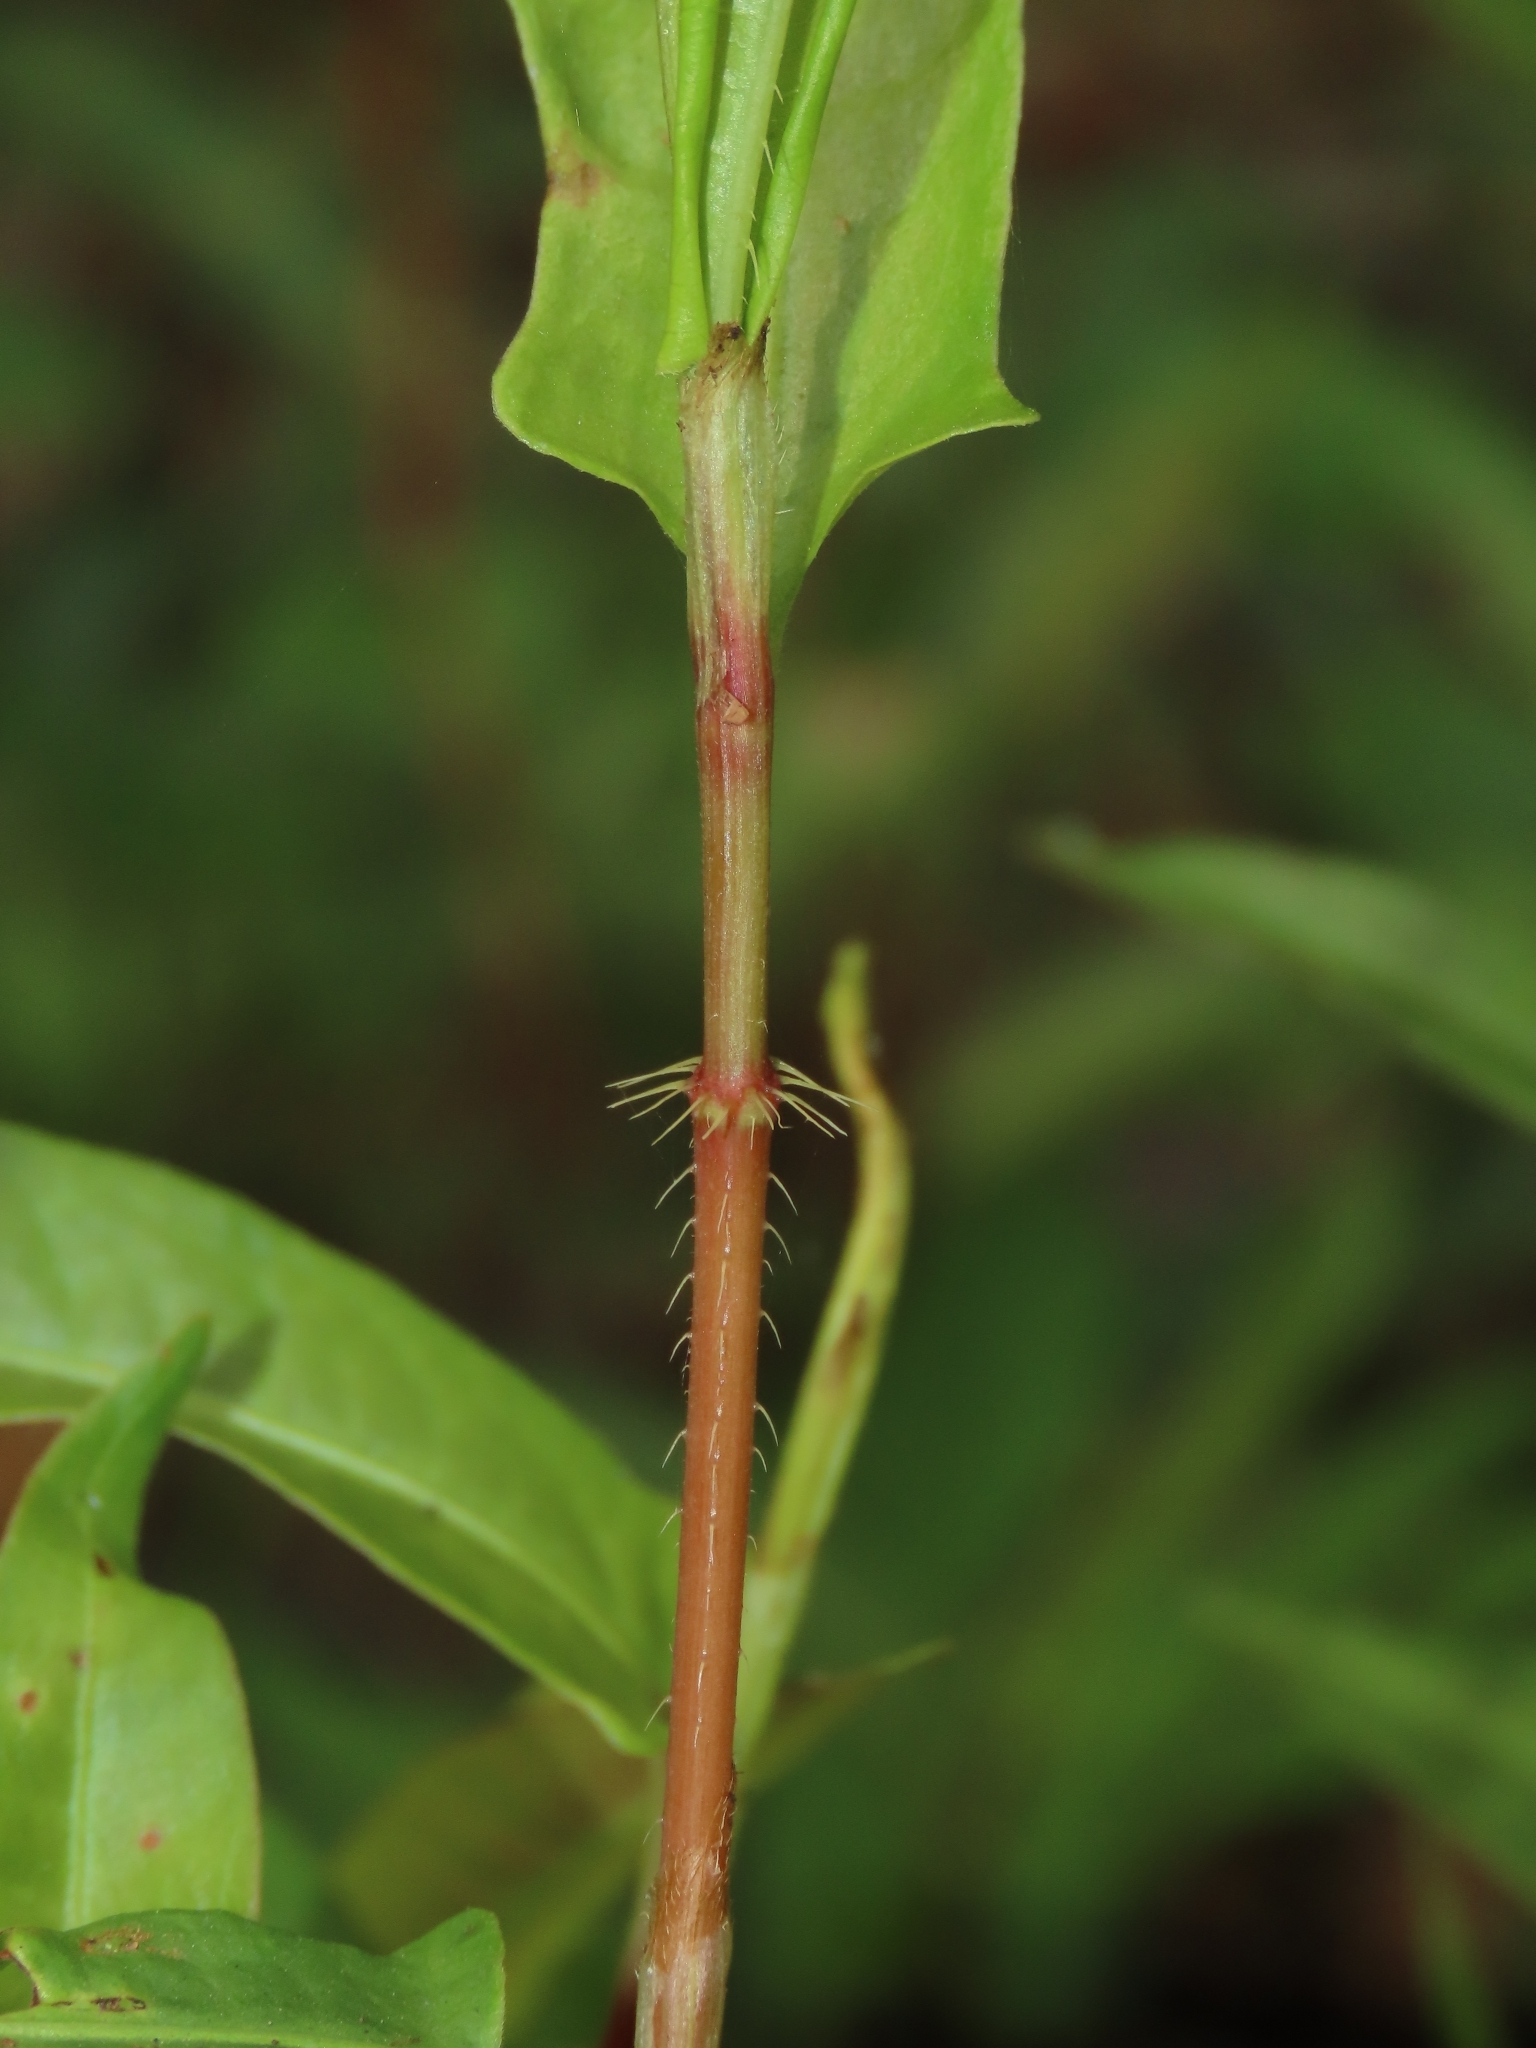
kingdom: Plantae
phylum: Tracheophyta
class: Magnoliopsida
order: Caryophyllales
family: Polygonaceae
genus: Persicaria
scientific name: Persicaria dichotoma
